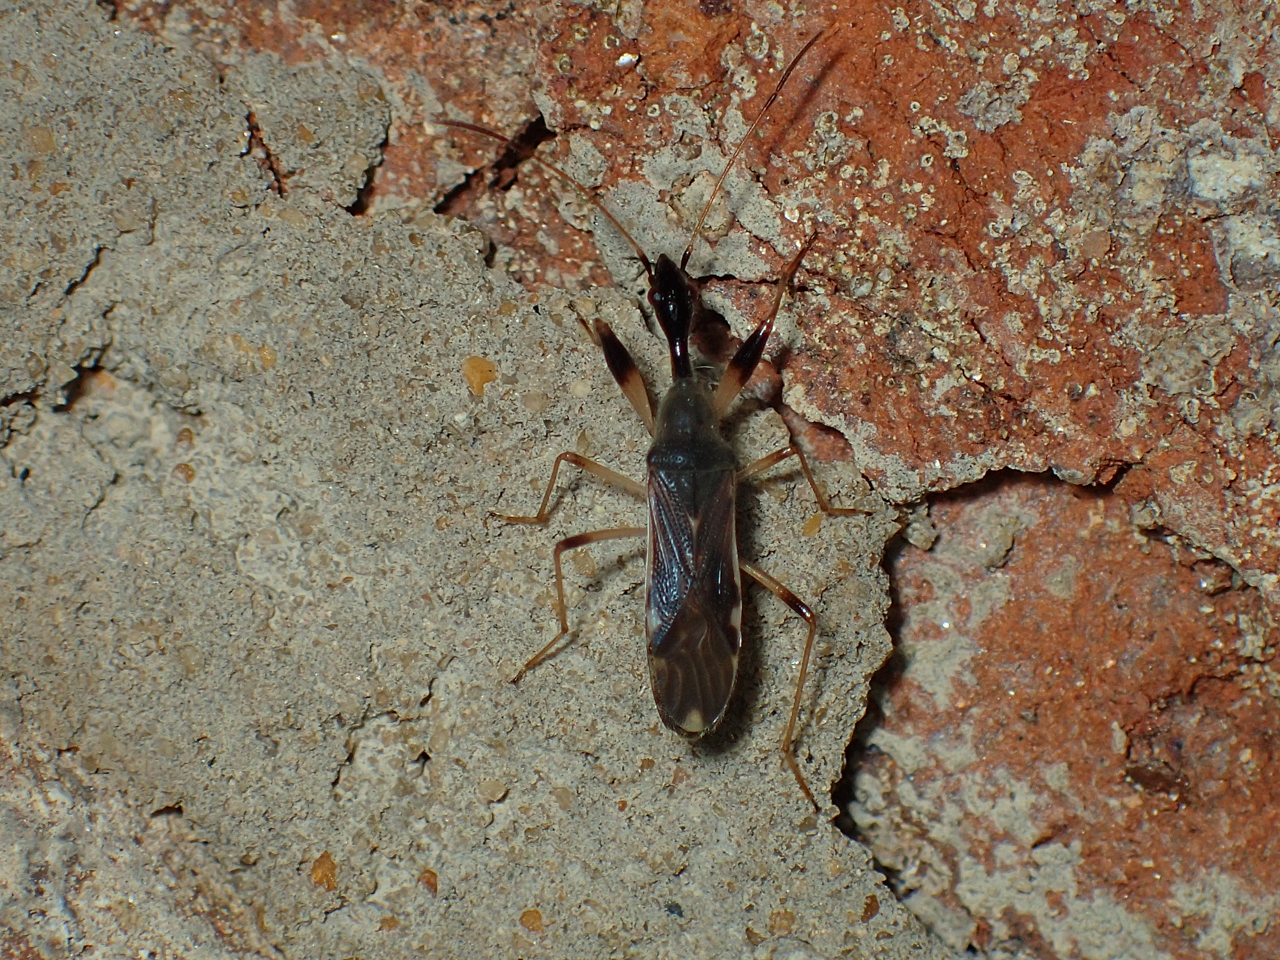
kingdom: Animalia
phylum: Arthropoda
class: Insecta
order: Hemiptera
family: Rhyparochromidae
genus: Myodocha
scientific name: Myodocha serripes
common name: Long-necked seed bug
